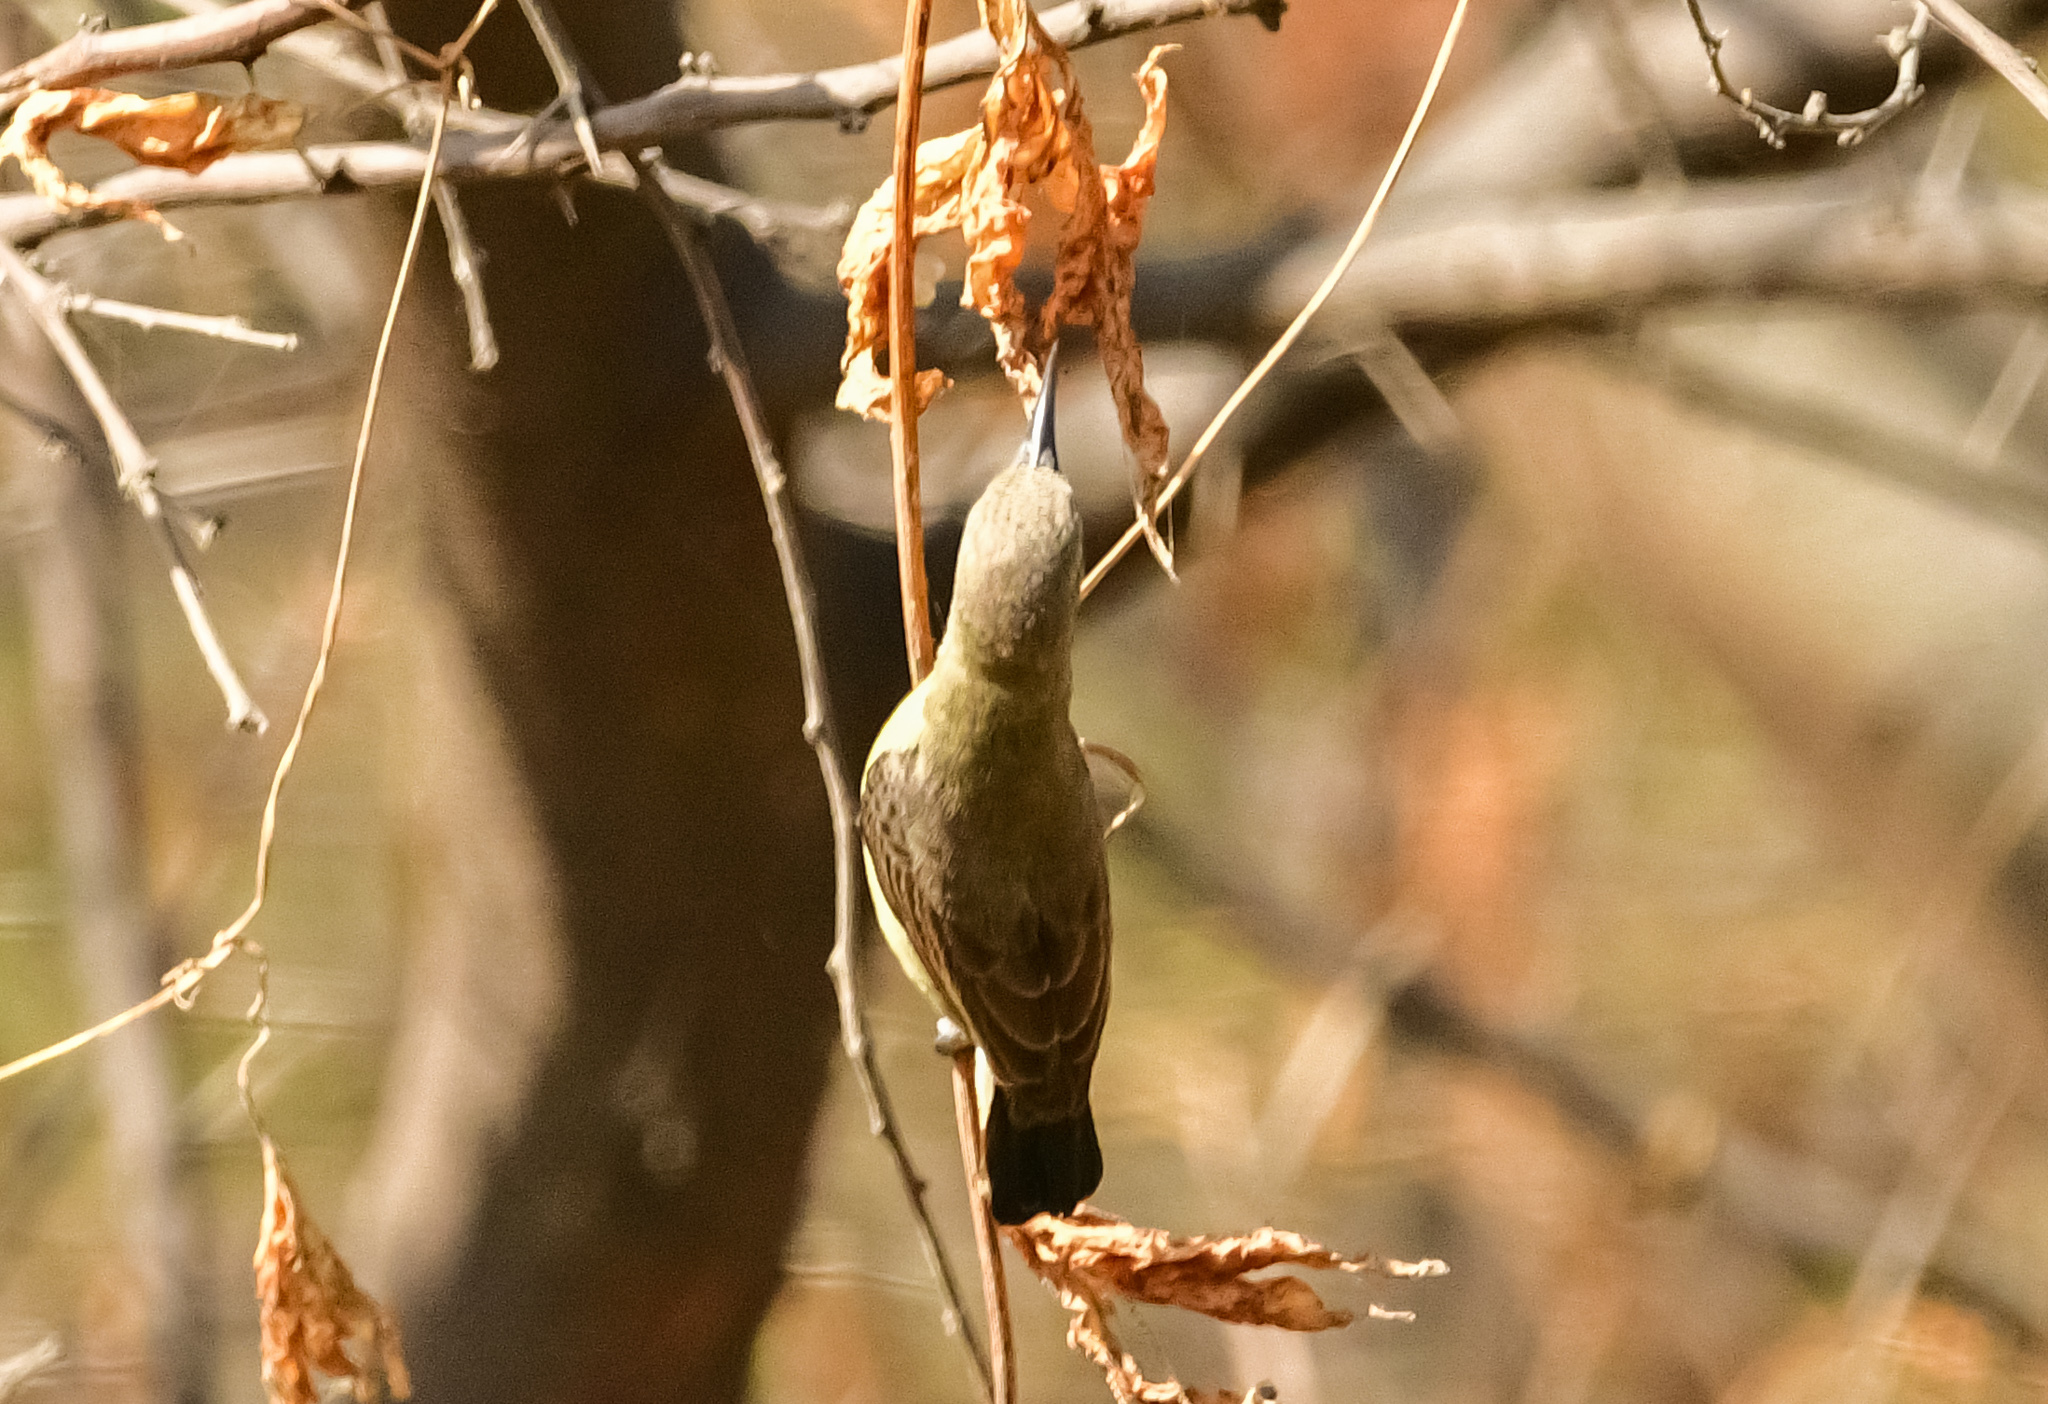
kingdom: Animalia
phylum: Chordata
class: Aves
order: Passeriformes
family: Nectariniidae
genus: Cinnyris
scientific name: Cinnyris asiaticus
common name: Purple sunbird
